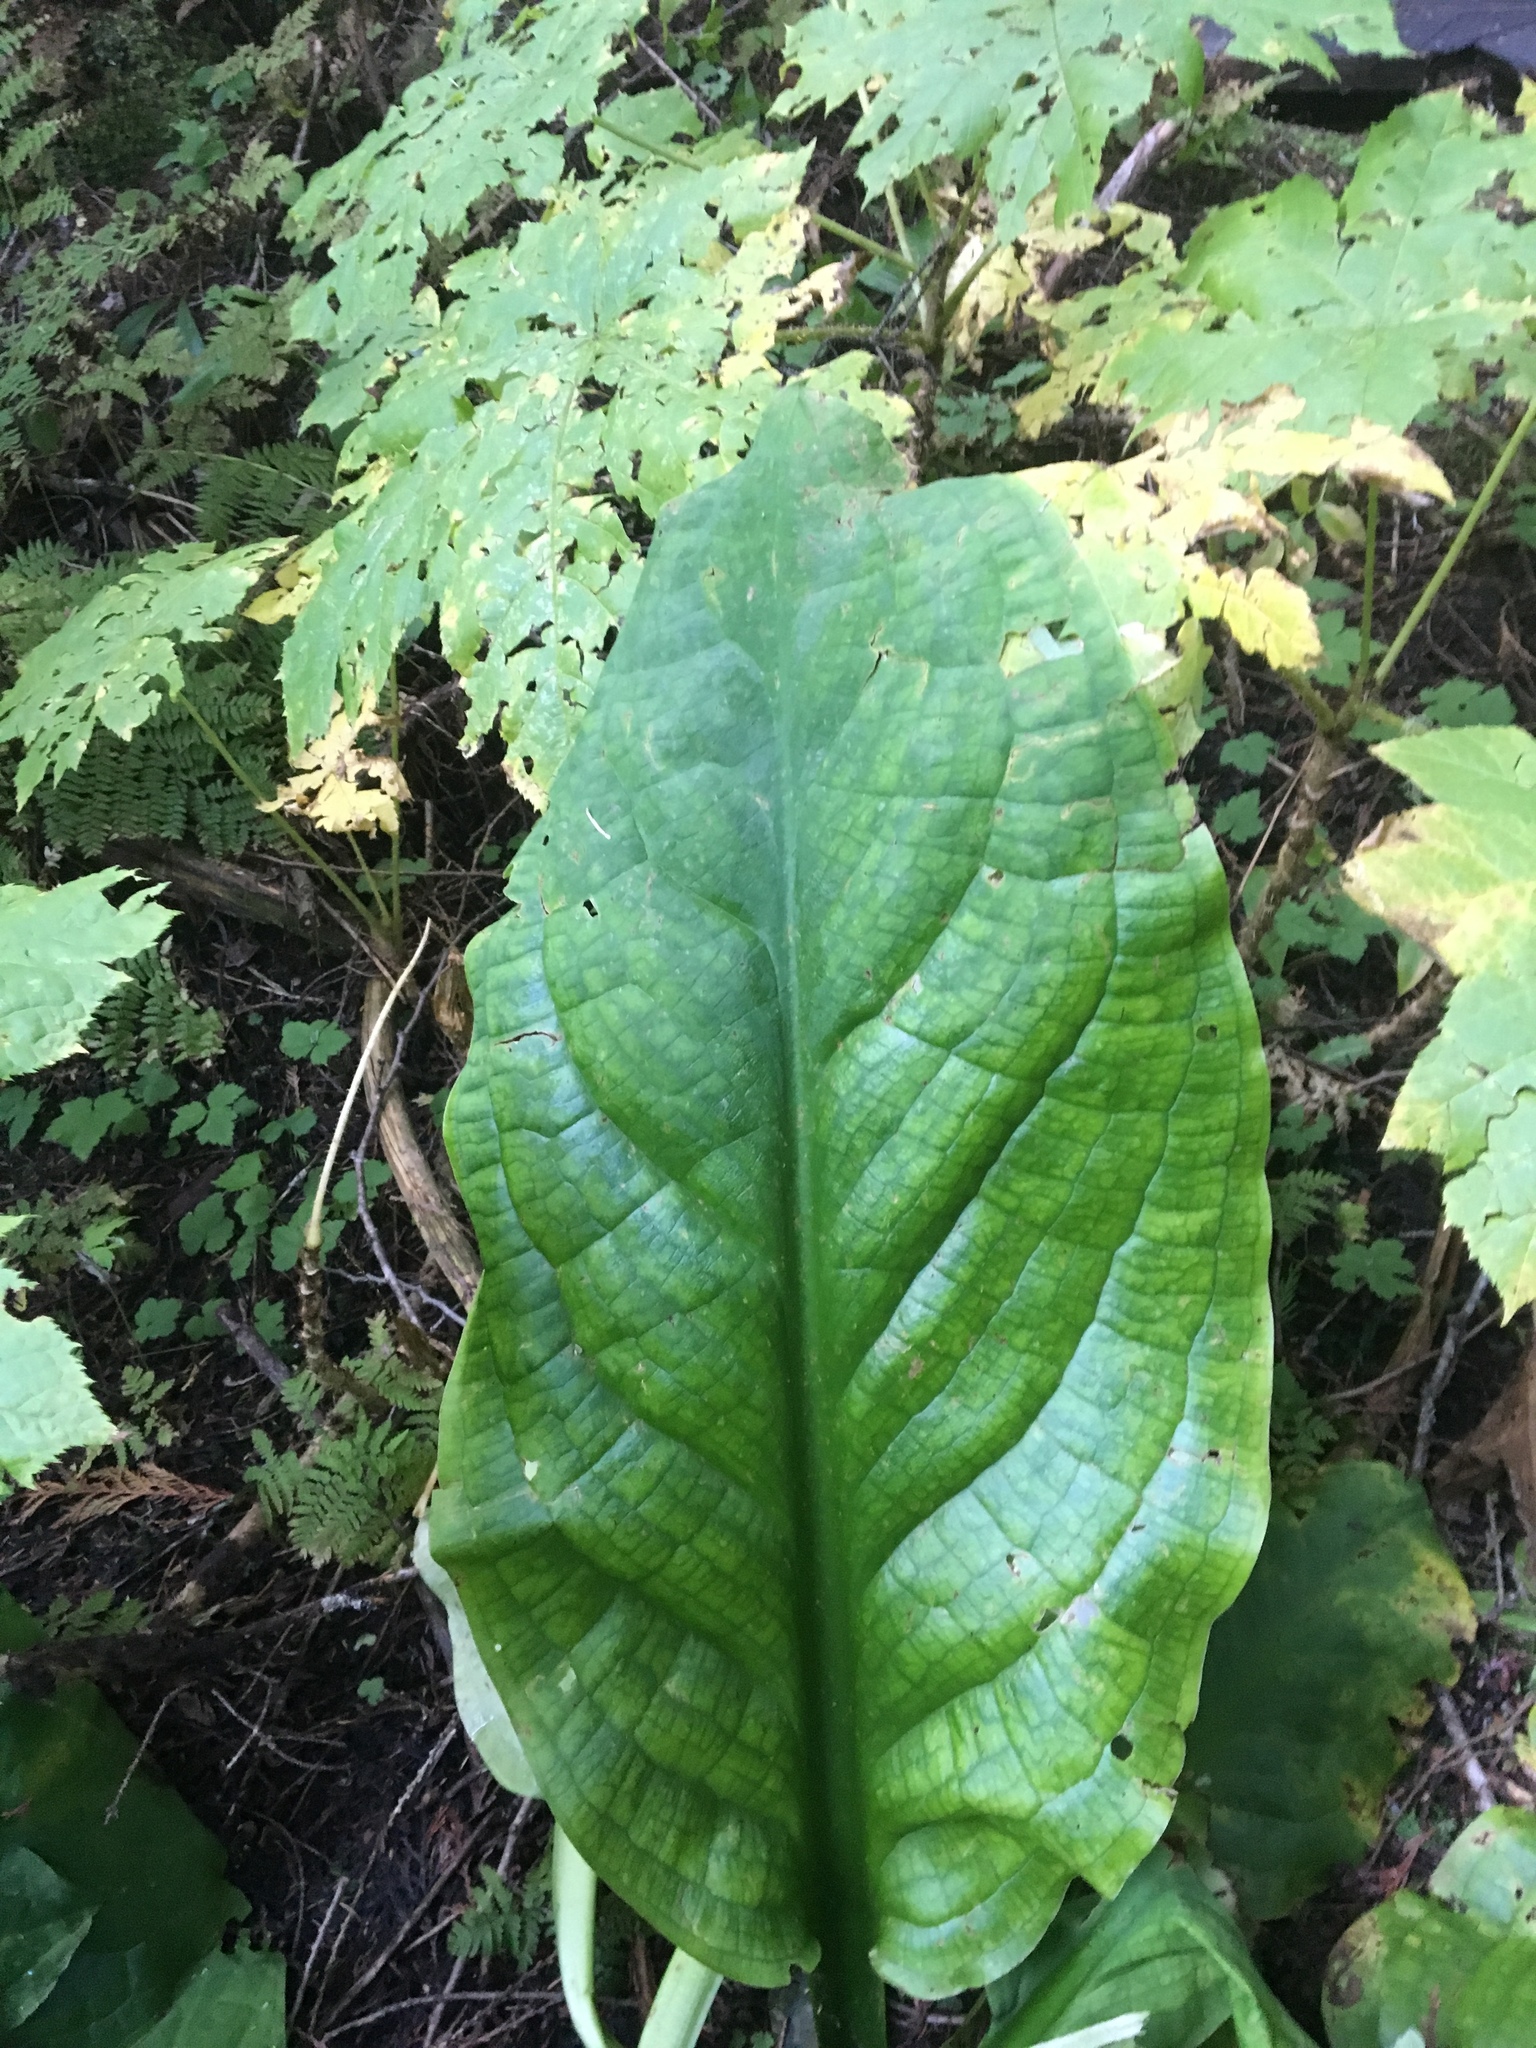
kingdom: Plantae
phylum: Tracheophyta
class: Liliopsida
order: Alismatales
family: Araceae
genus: Lysichiton
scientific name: Lysichiton americanus
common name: American skunk cabbage
